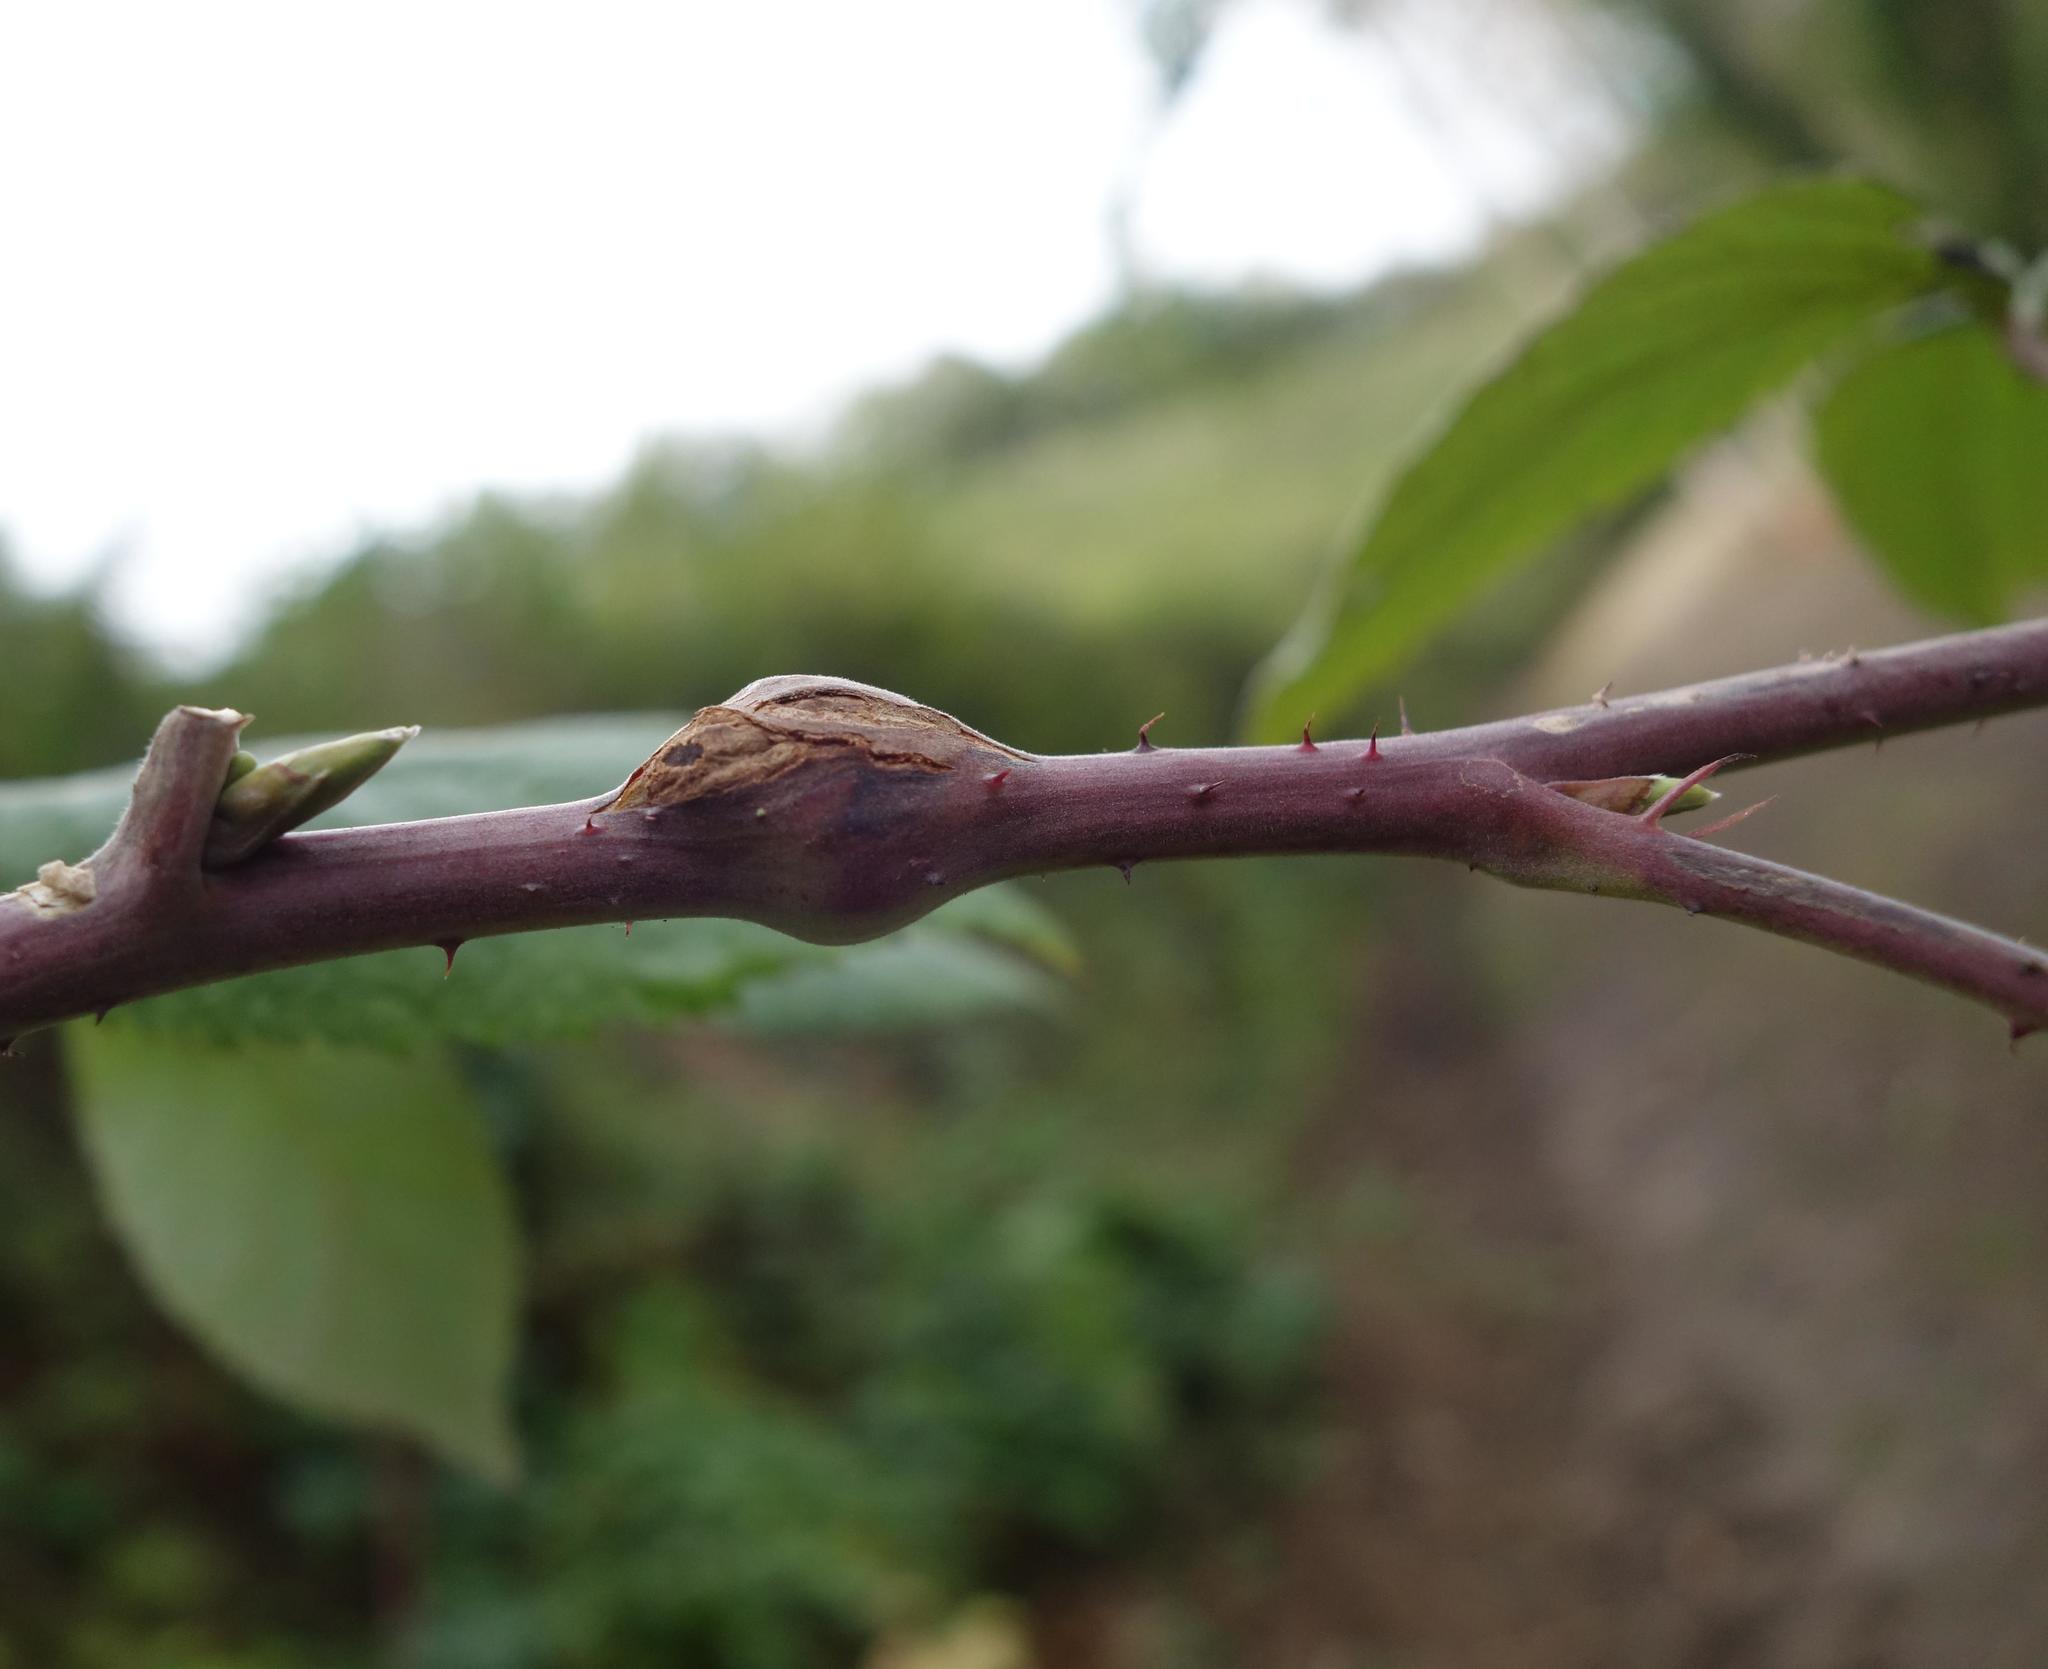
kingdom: Animalia
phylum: Arthropoda
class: Insecta
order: Diptera
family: Cecidomyiidae
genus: Lasioptera
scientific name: Lasioptera rubi
